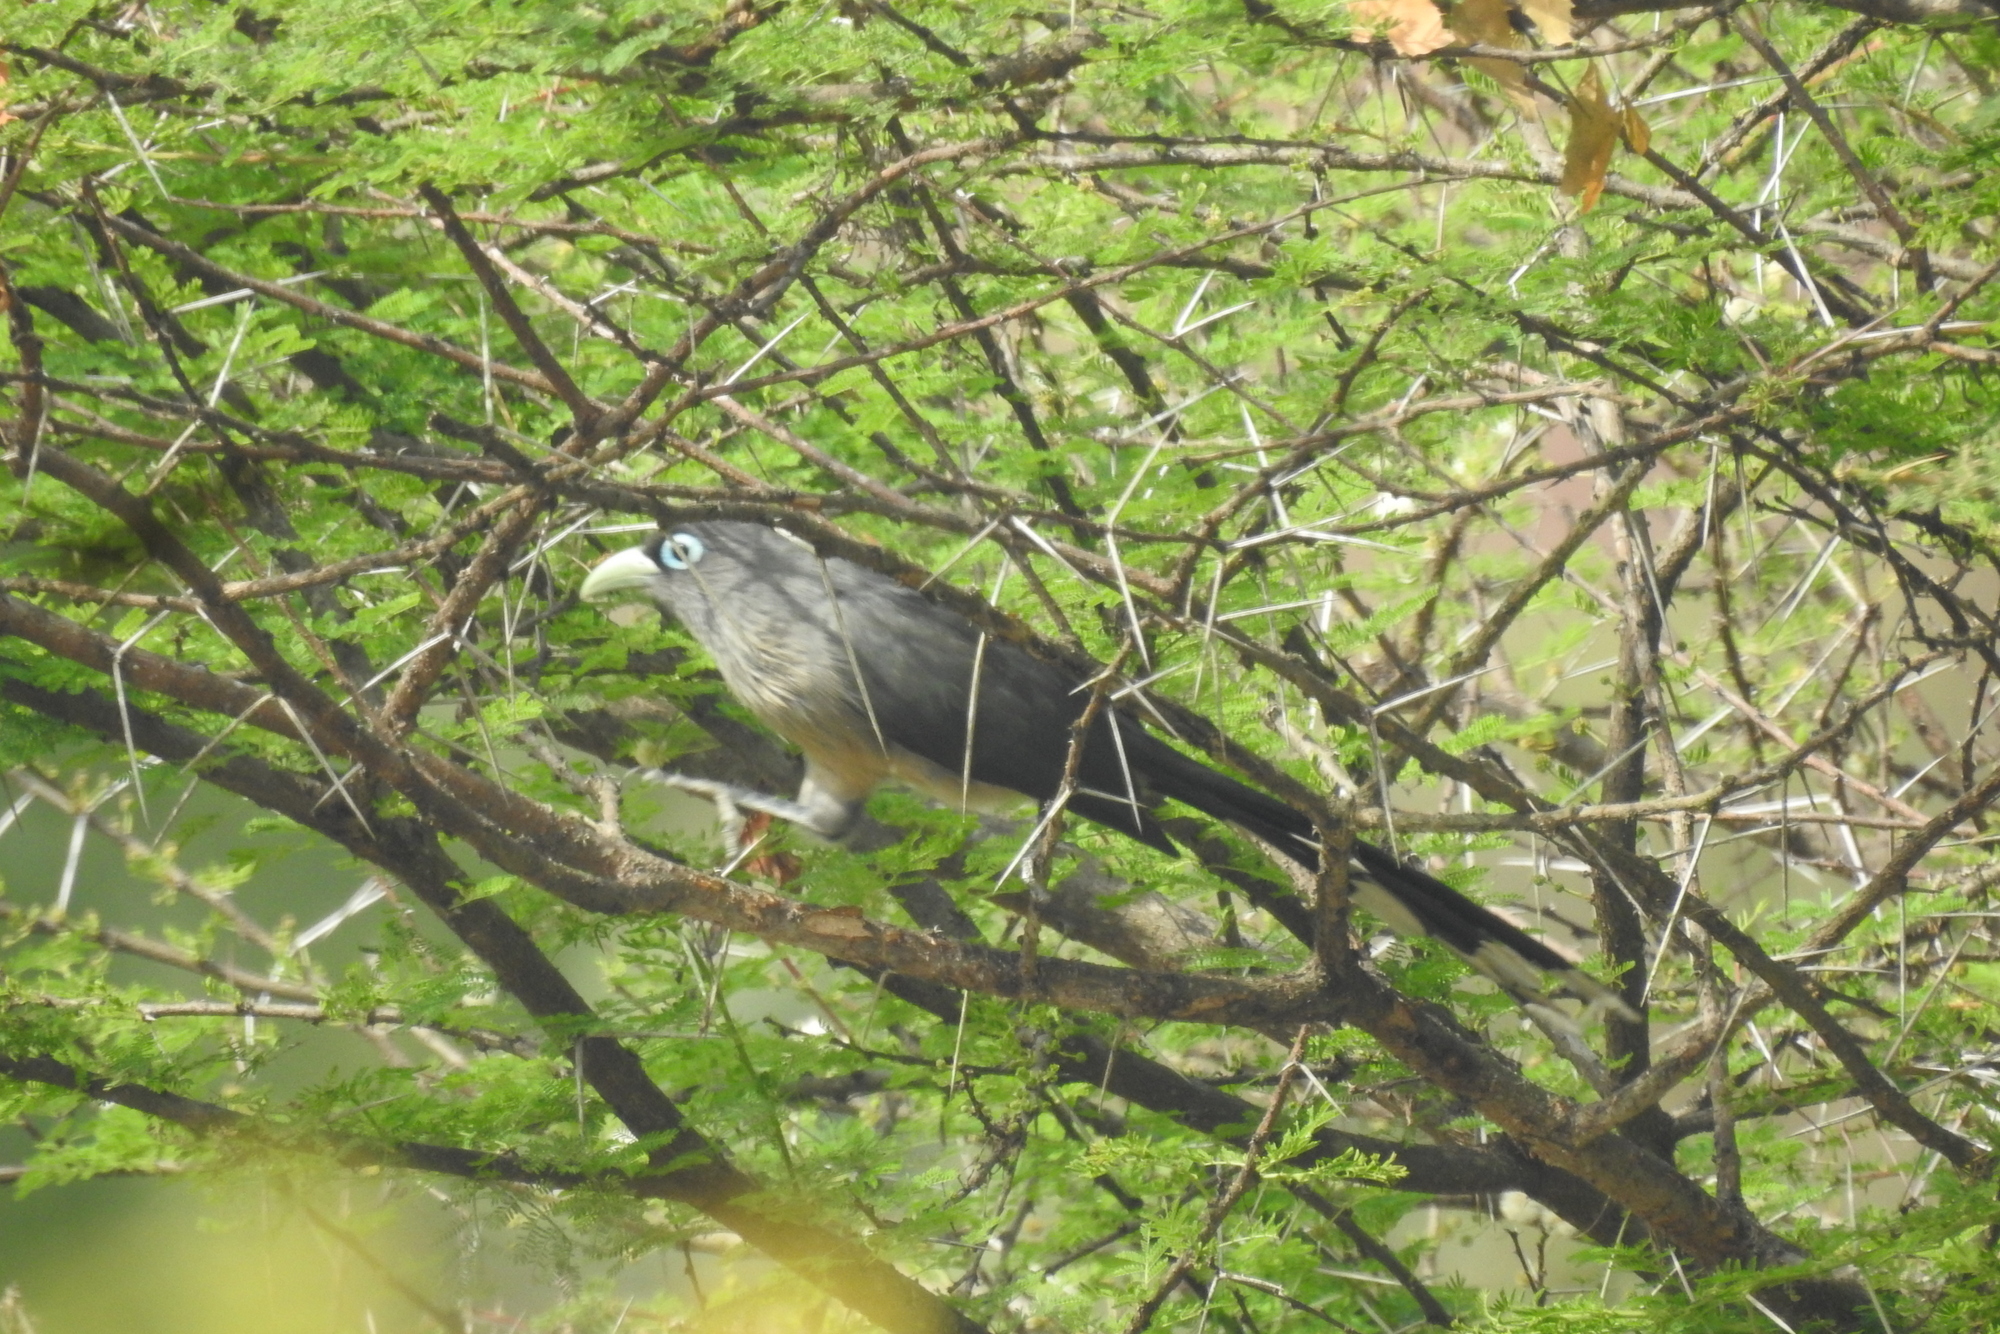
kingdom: Animalia
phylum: Chordata
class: Aves
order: Cuculiformes
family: Cuculidae
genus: Rhopodytes
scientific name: Rhopodytes viridirostris
